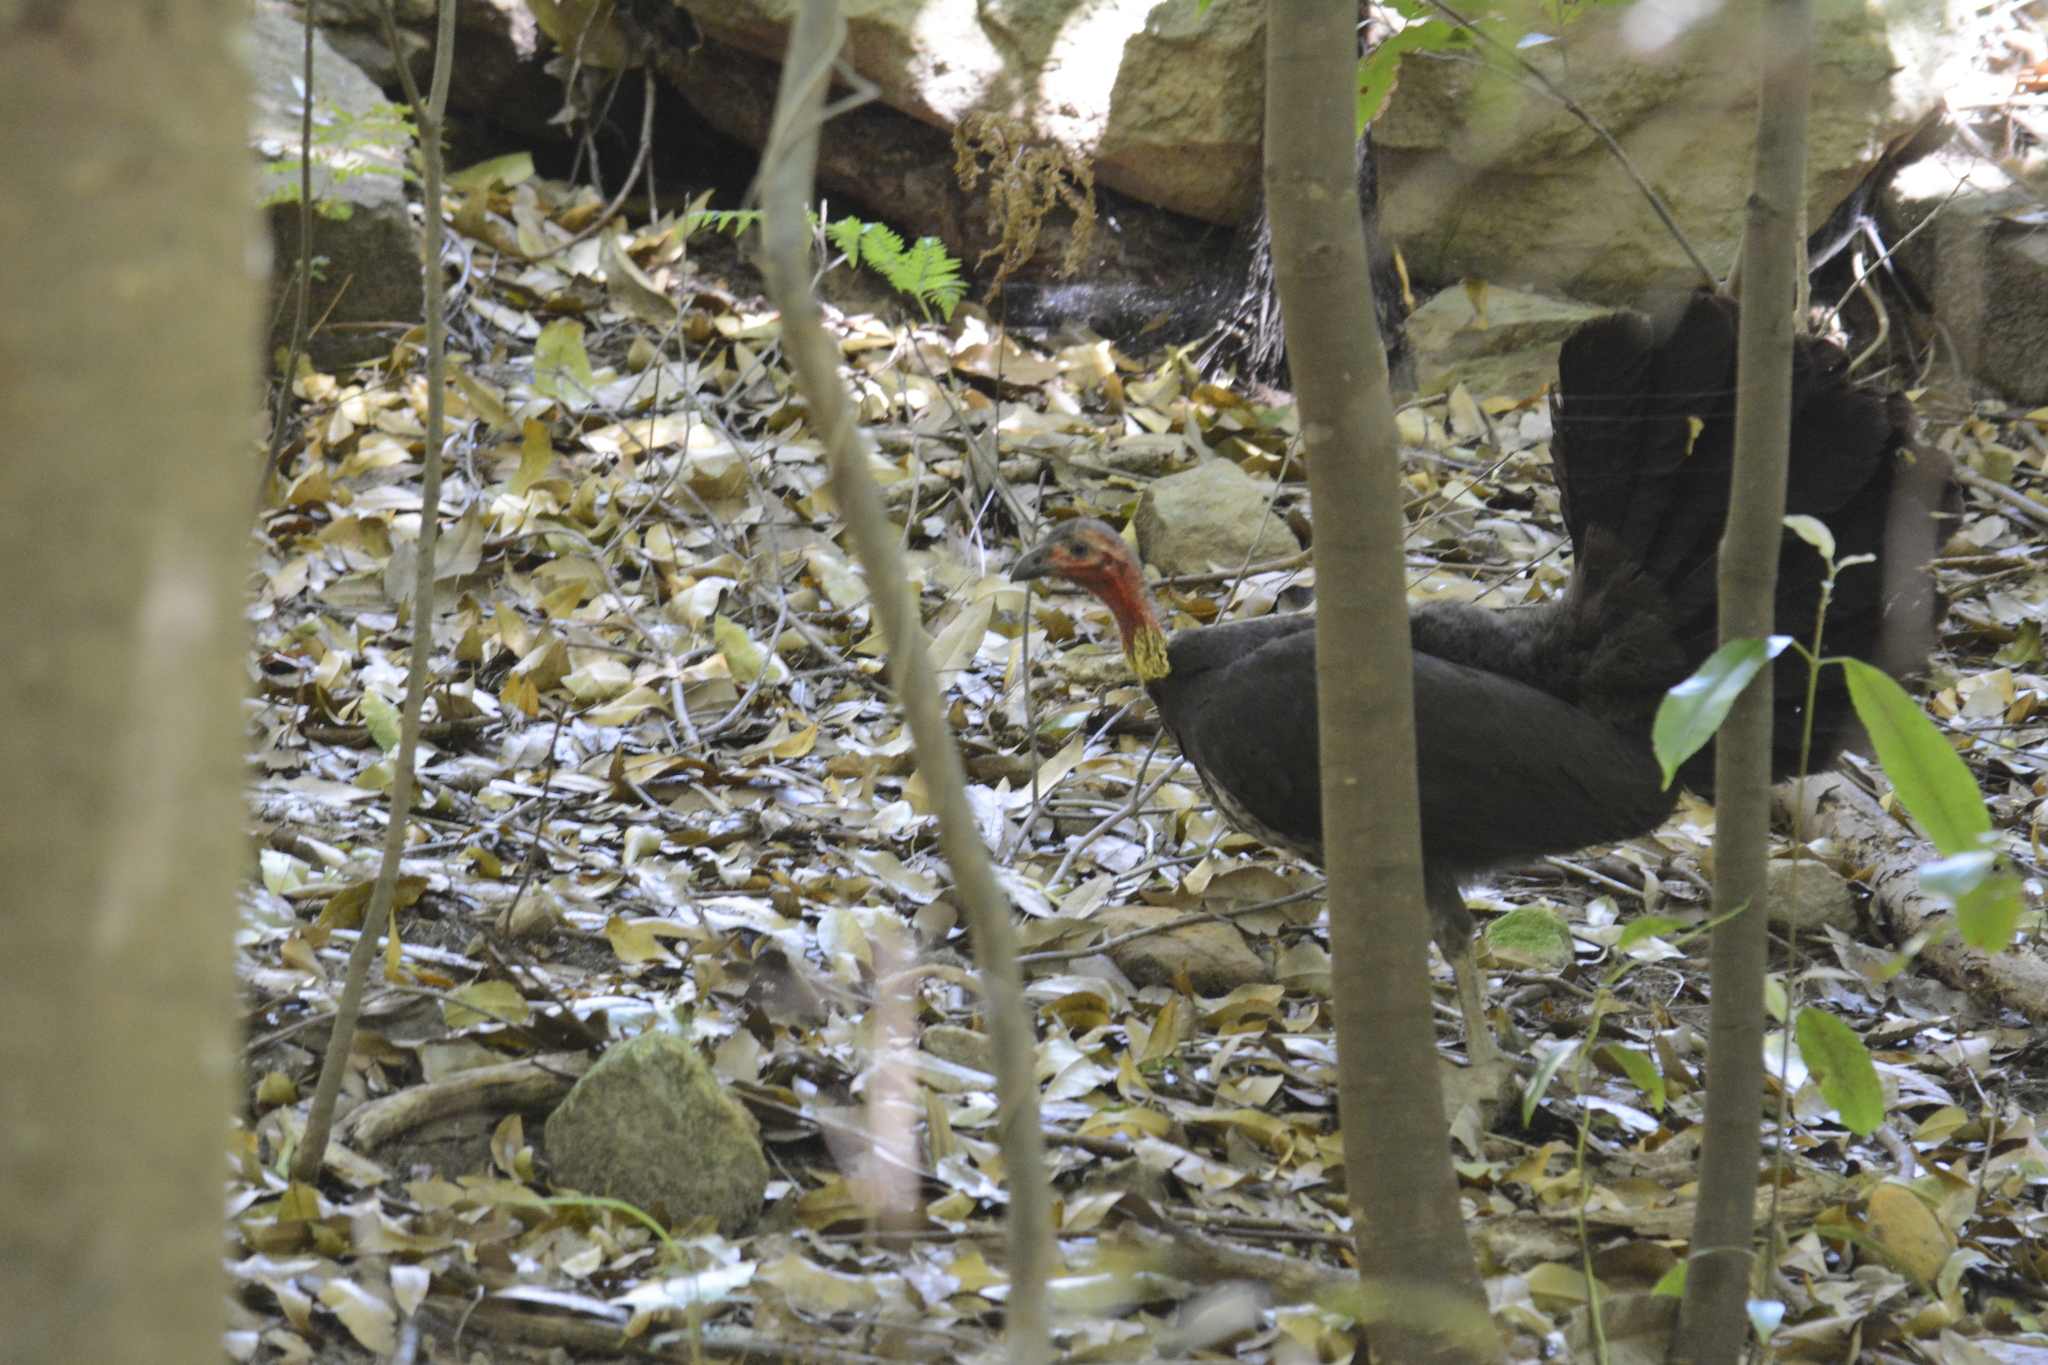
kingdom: Animalia
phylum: Chordata
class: Aves
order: Galliformes
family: Megapodiidae
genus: Alectura
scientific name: Alectura lathami
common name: Australian brushturkey
